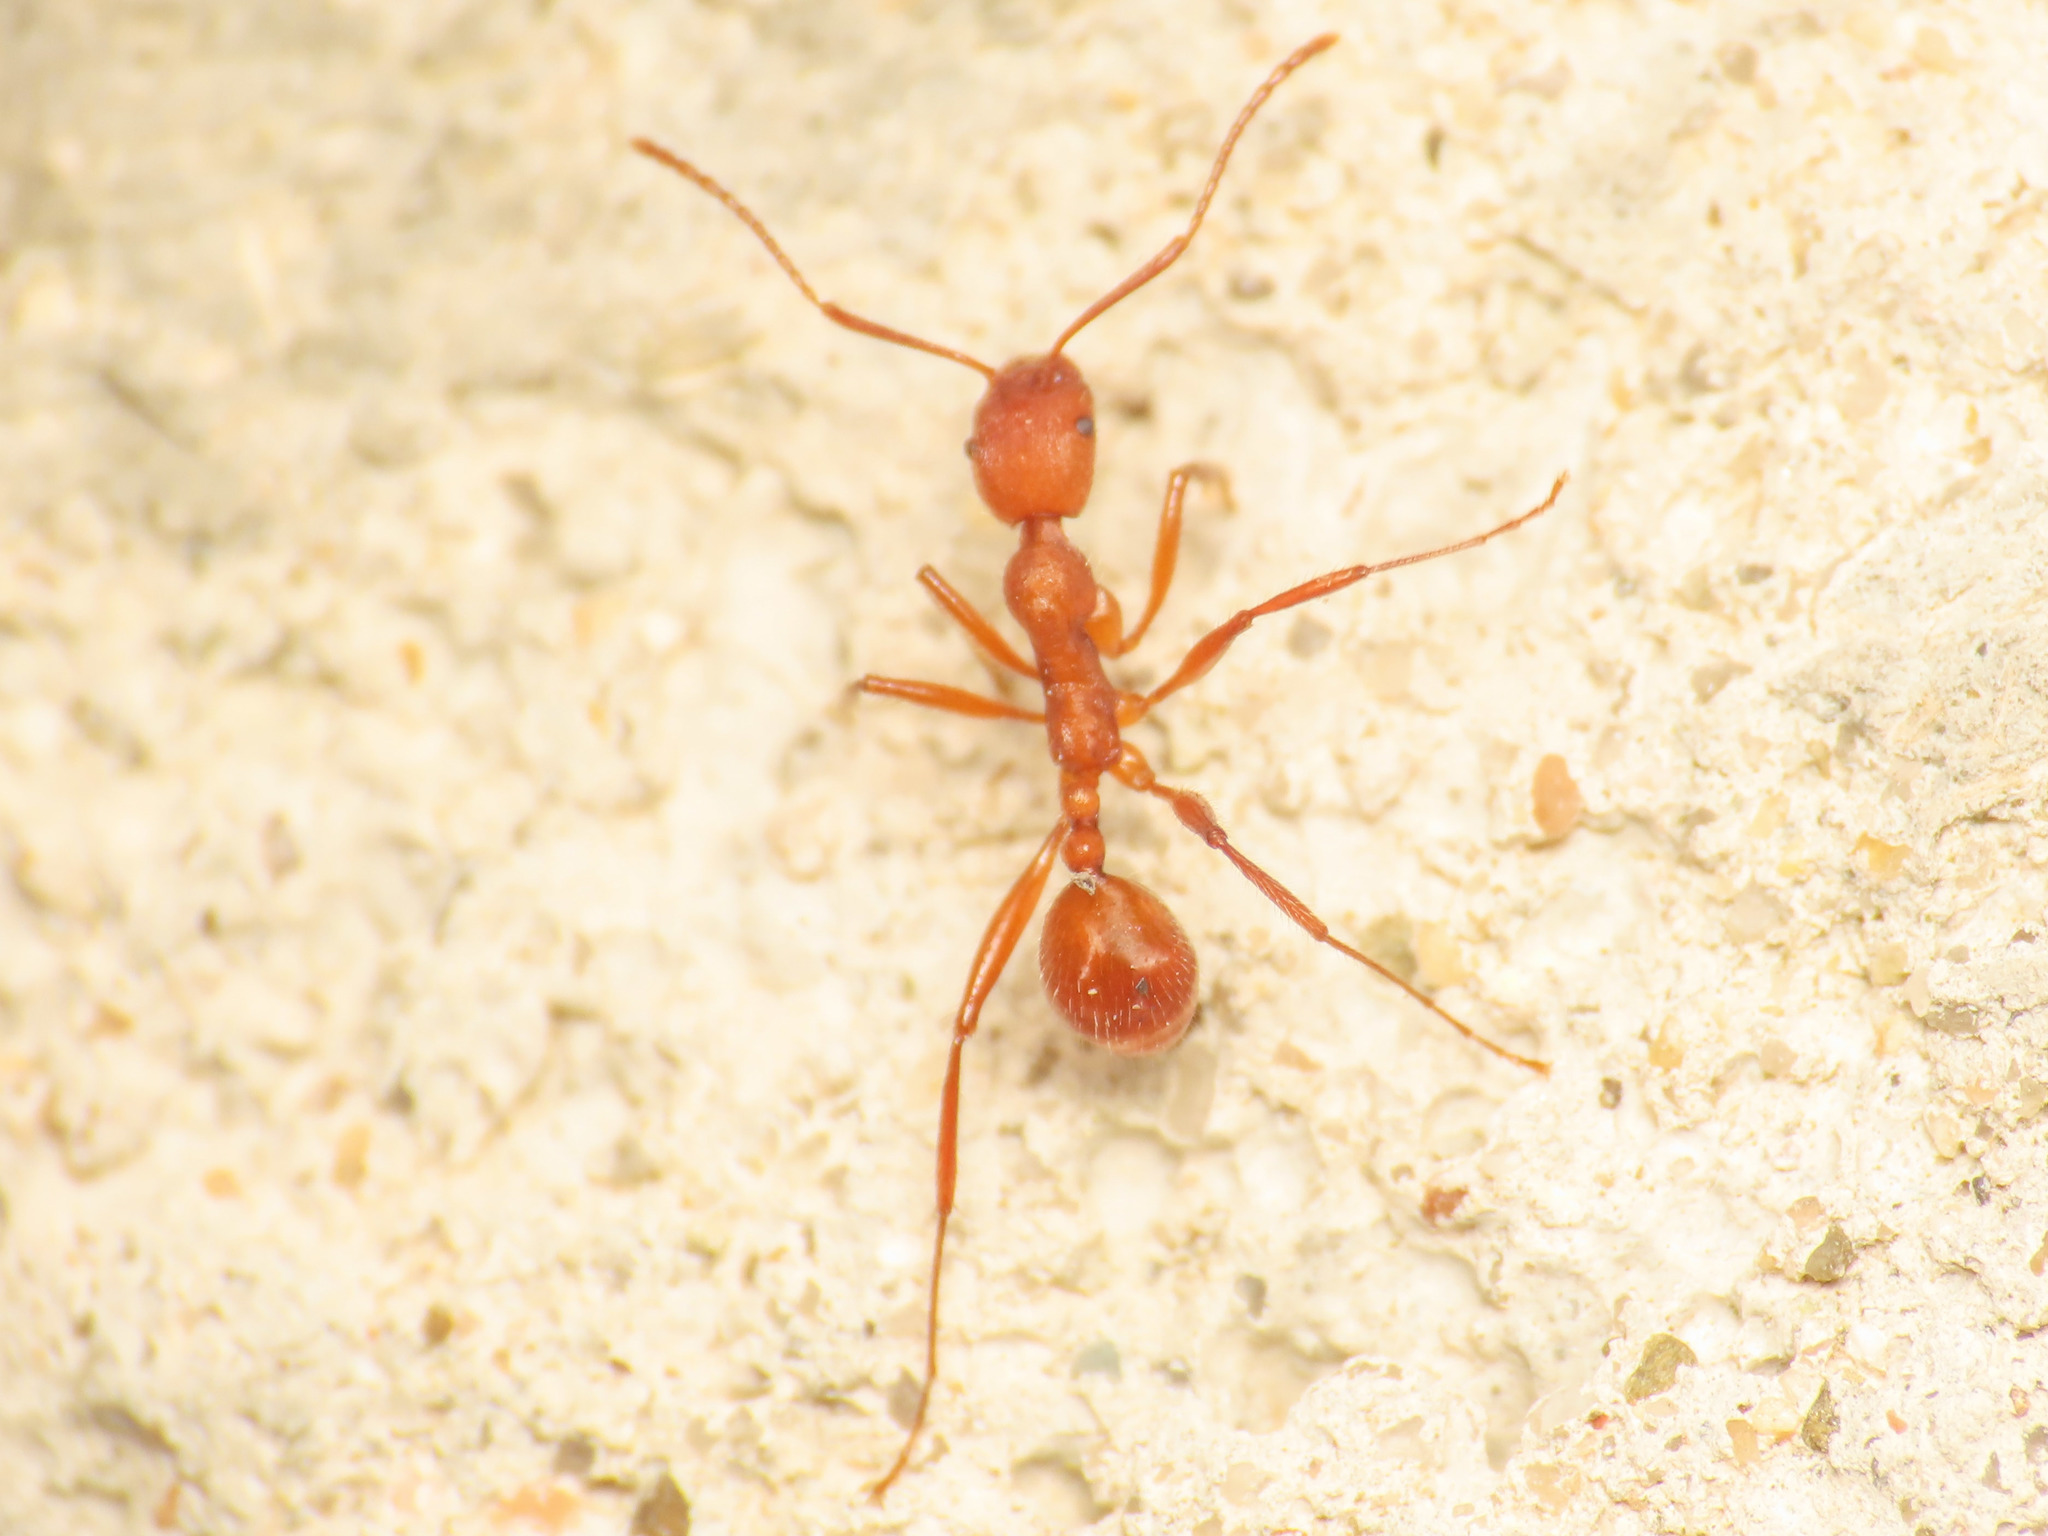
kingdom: Animalia
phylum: Arthropoda
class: Insecta
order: Hymenoptera
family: Formicidae
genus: Aphaenogaster
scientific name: Aphaenogaster sardoa
